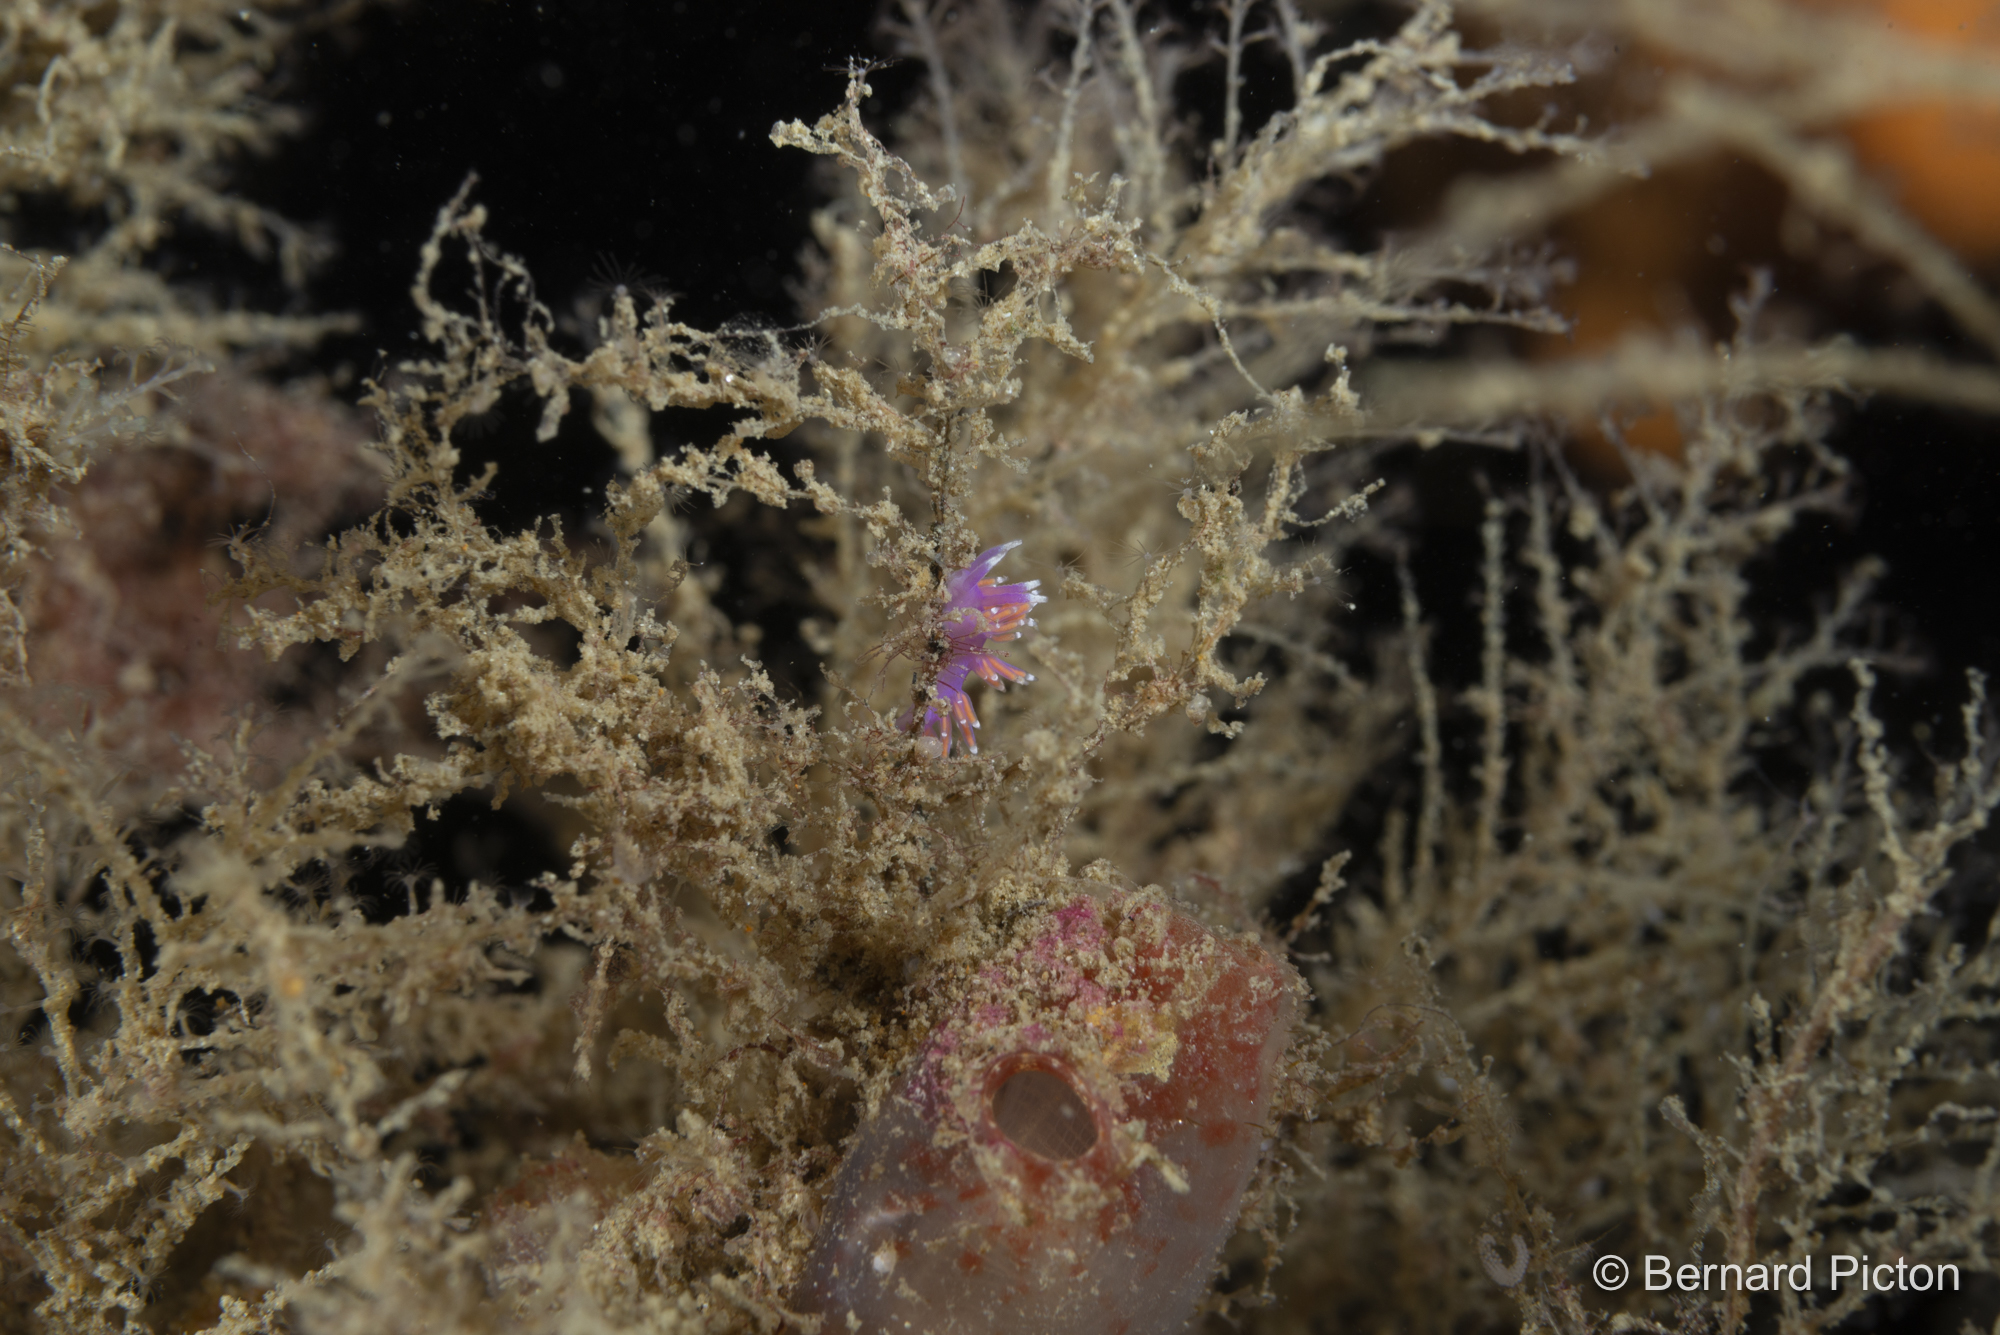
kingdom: Animalia
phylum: Mollusca
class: Gastropoda
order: Nudibranchia
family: Flabellinidae
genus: Edmundsella
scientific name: Edmundsella pedata
